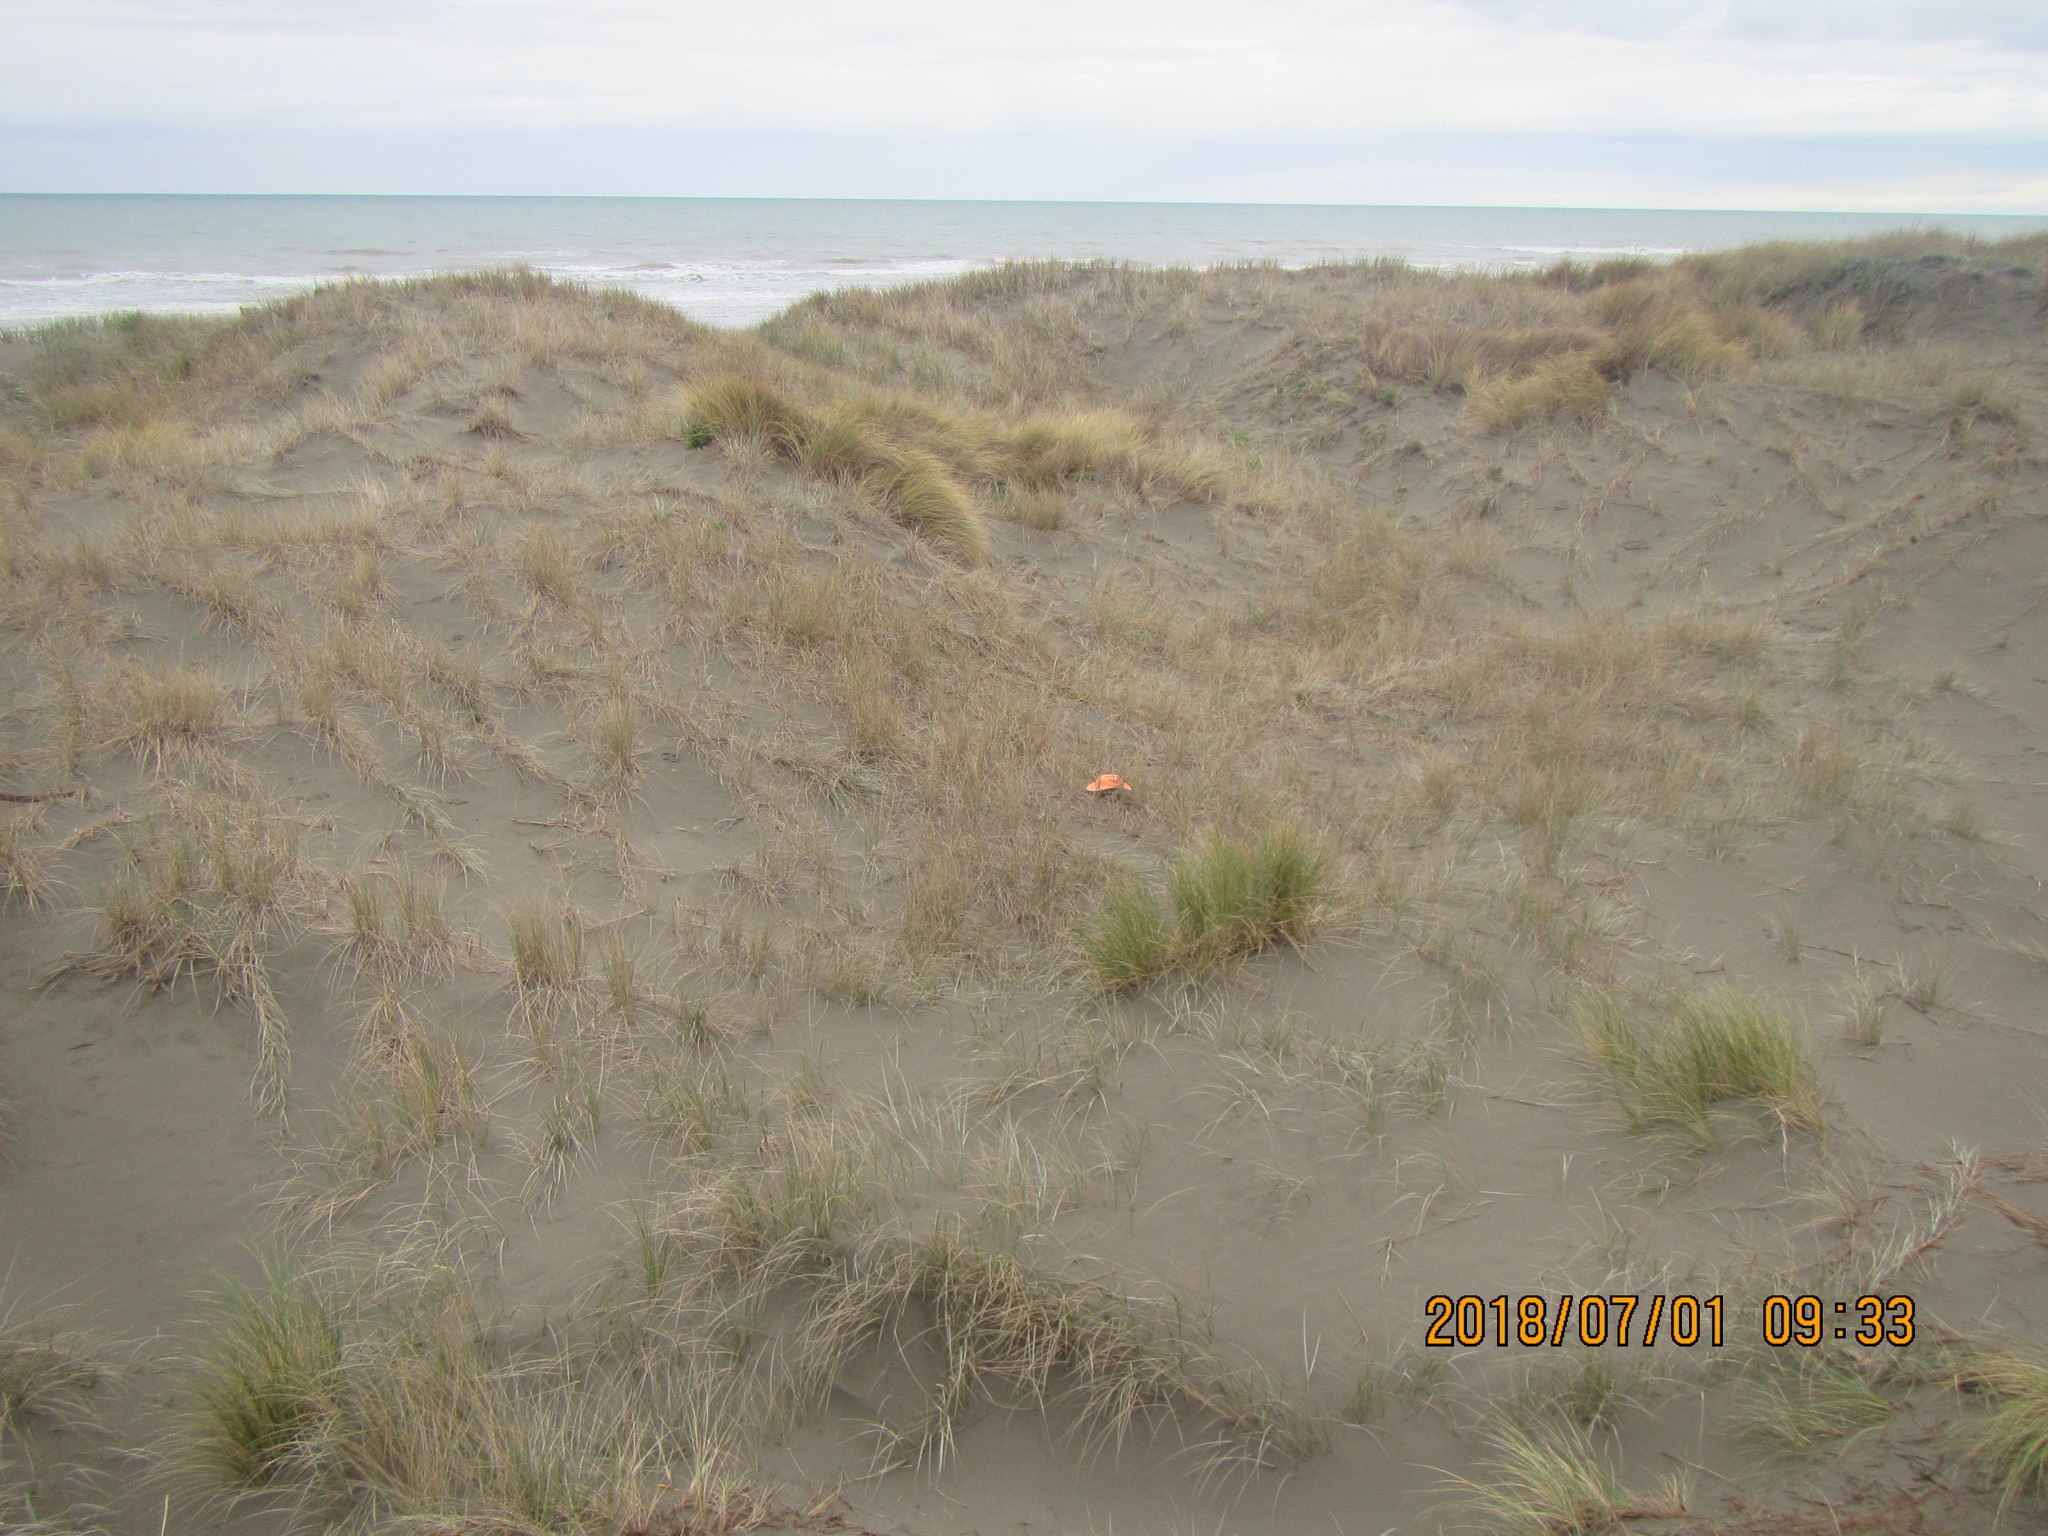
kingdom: Animalia
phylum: Arthropoda
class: Arachnida
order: Araneae
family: Theridiidae
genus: Latrodectus
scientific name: Latrodectus katipo
